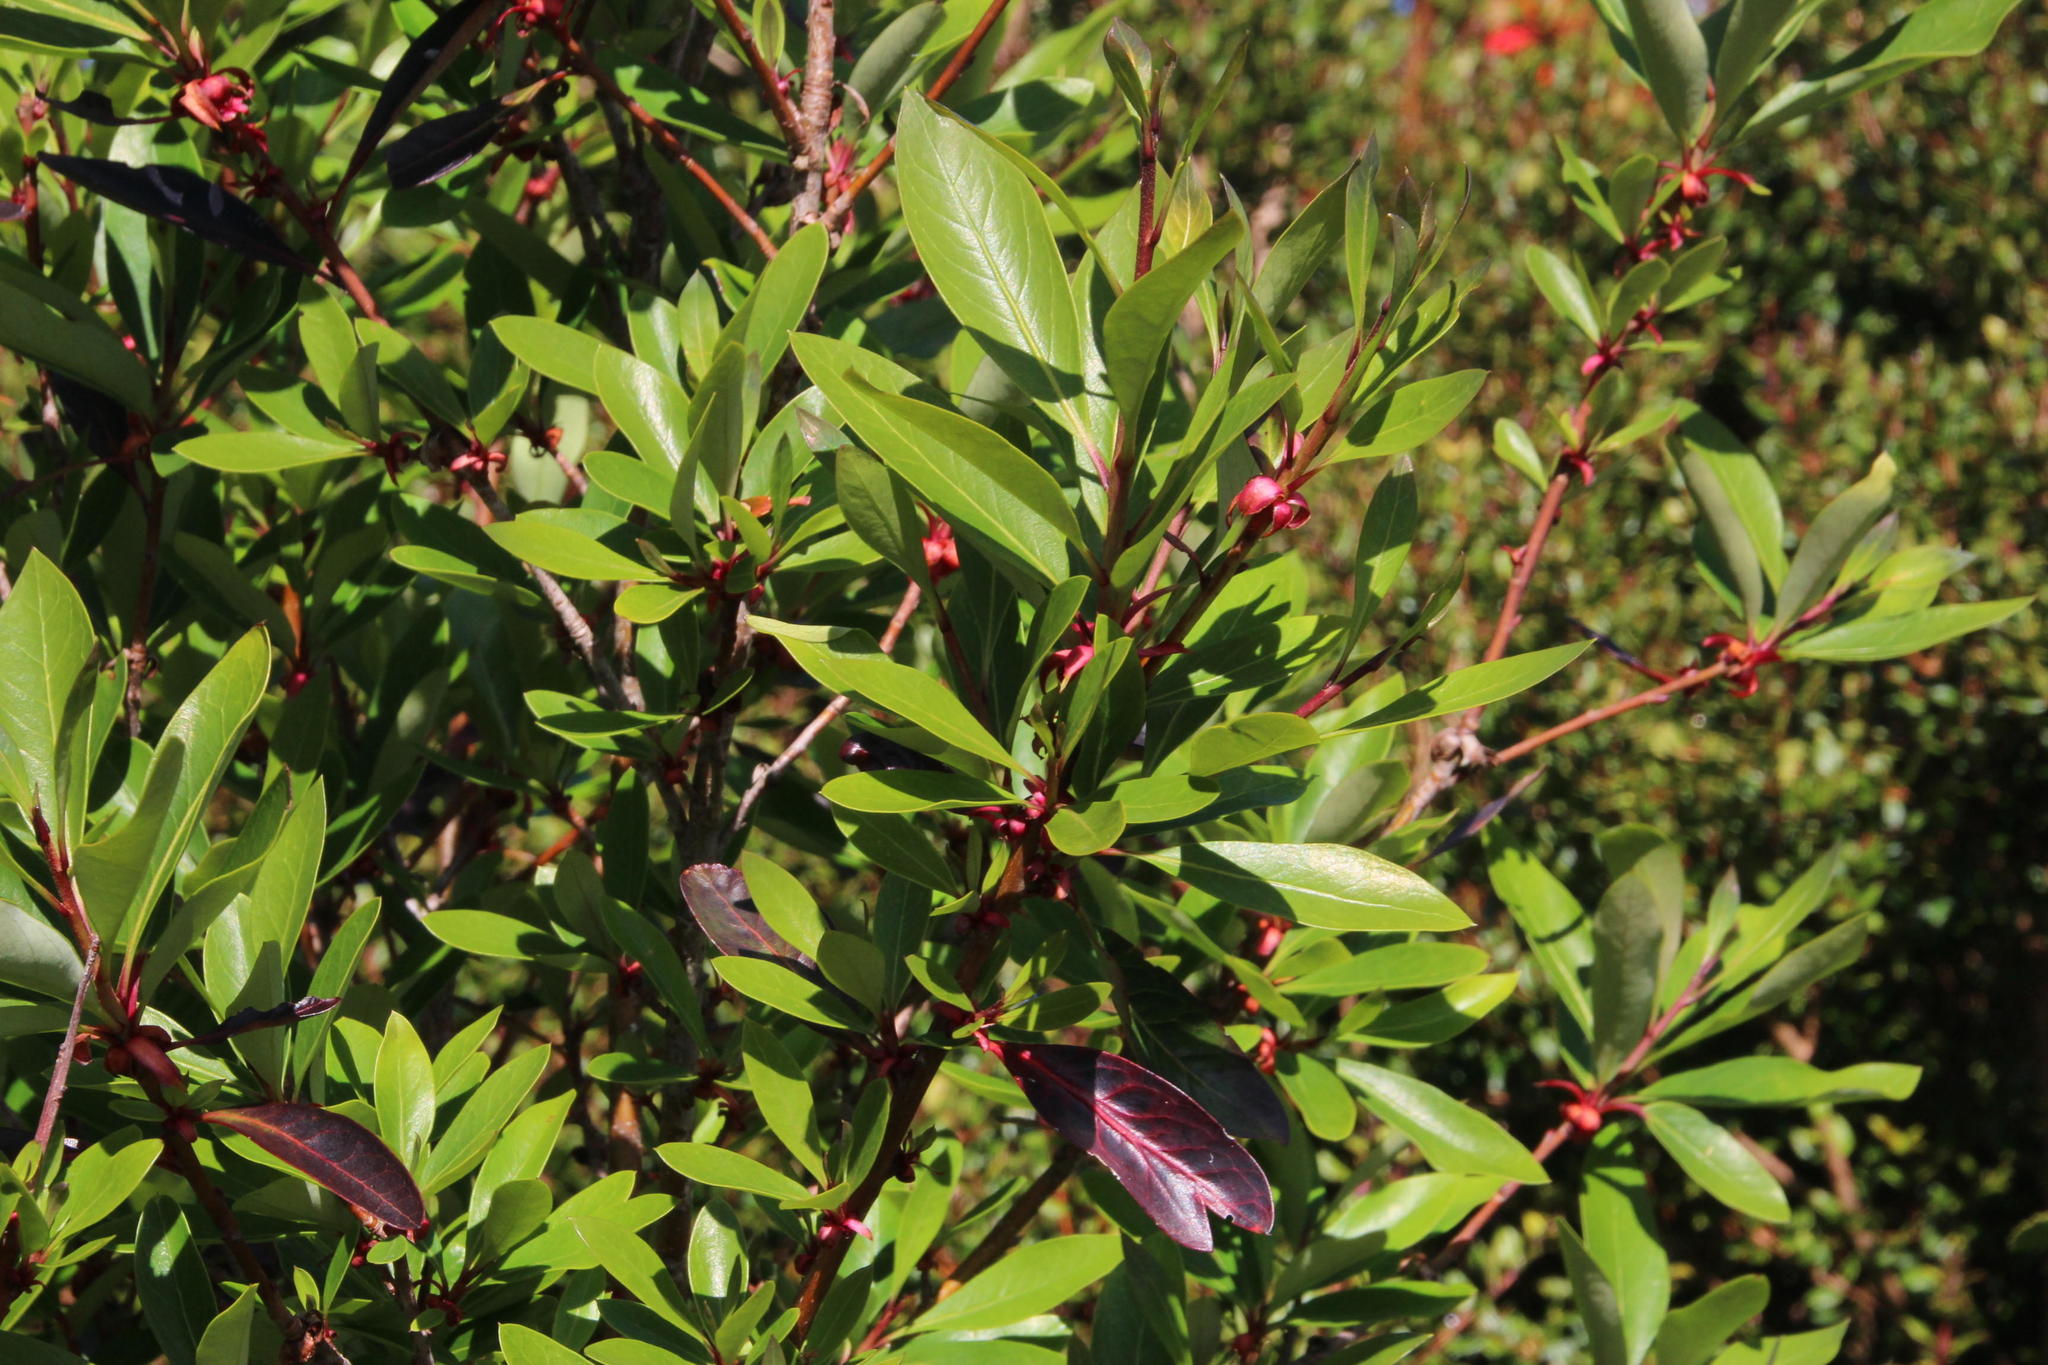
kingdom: Plantae
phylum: Tracheophyta
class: Magnoliopsida
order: Proteales
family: Proteaceae
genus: Embothrium
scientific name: Embothrium coccineum
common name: Chilean firebush
